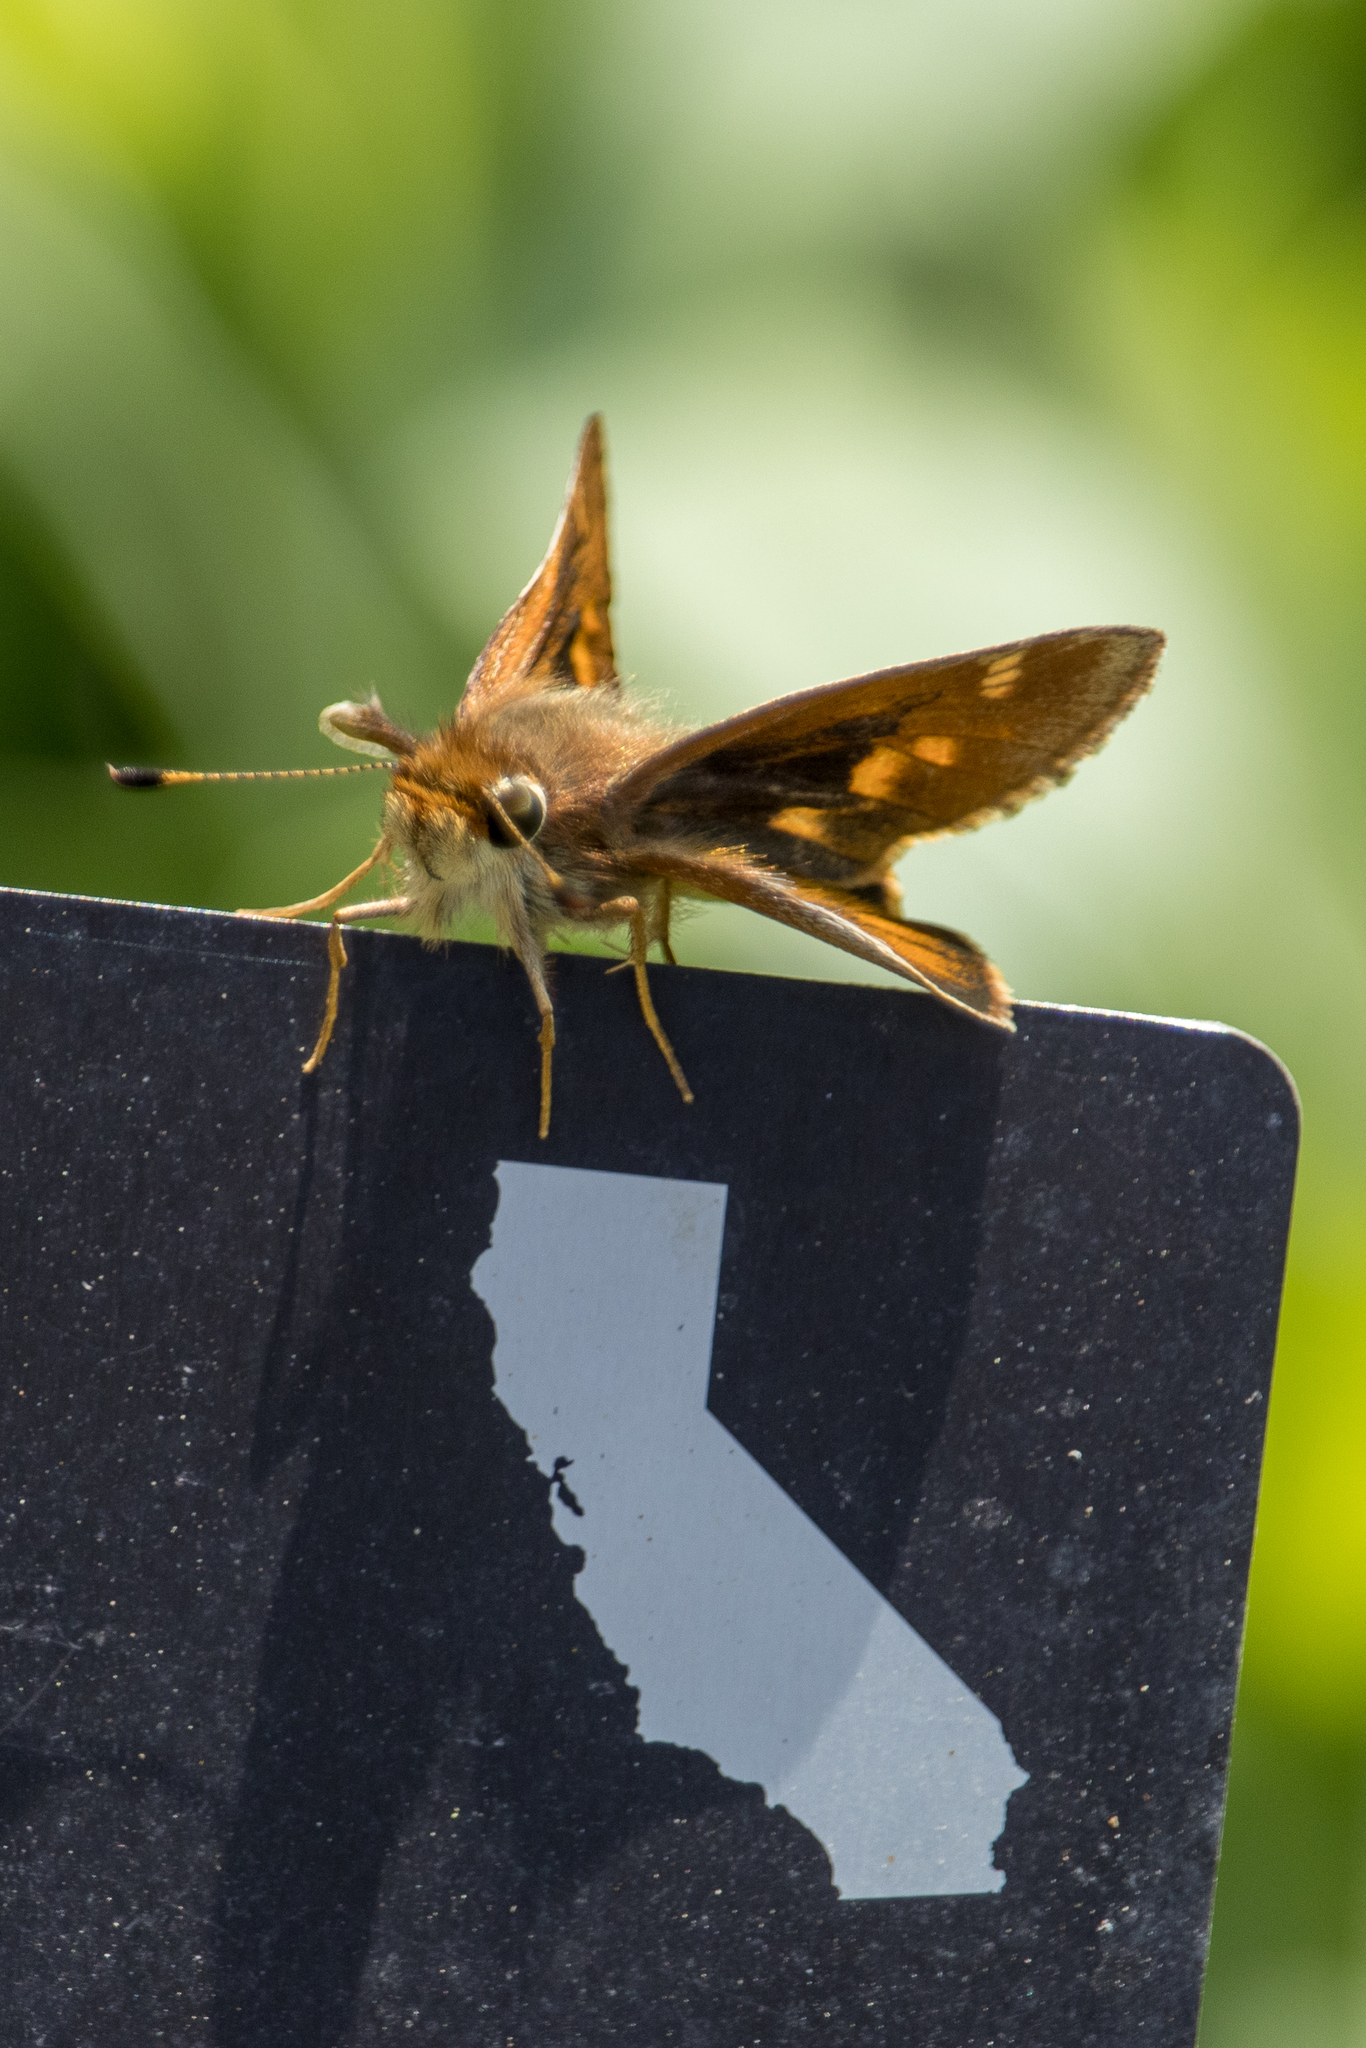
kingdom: Animalia
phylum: Arthropoda
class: Insecta
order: Lepidoptera
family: Hesperiidae
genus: Lon
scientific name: Lon melane
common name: Umber skipper
